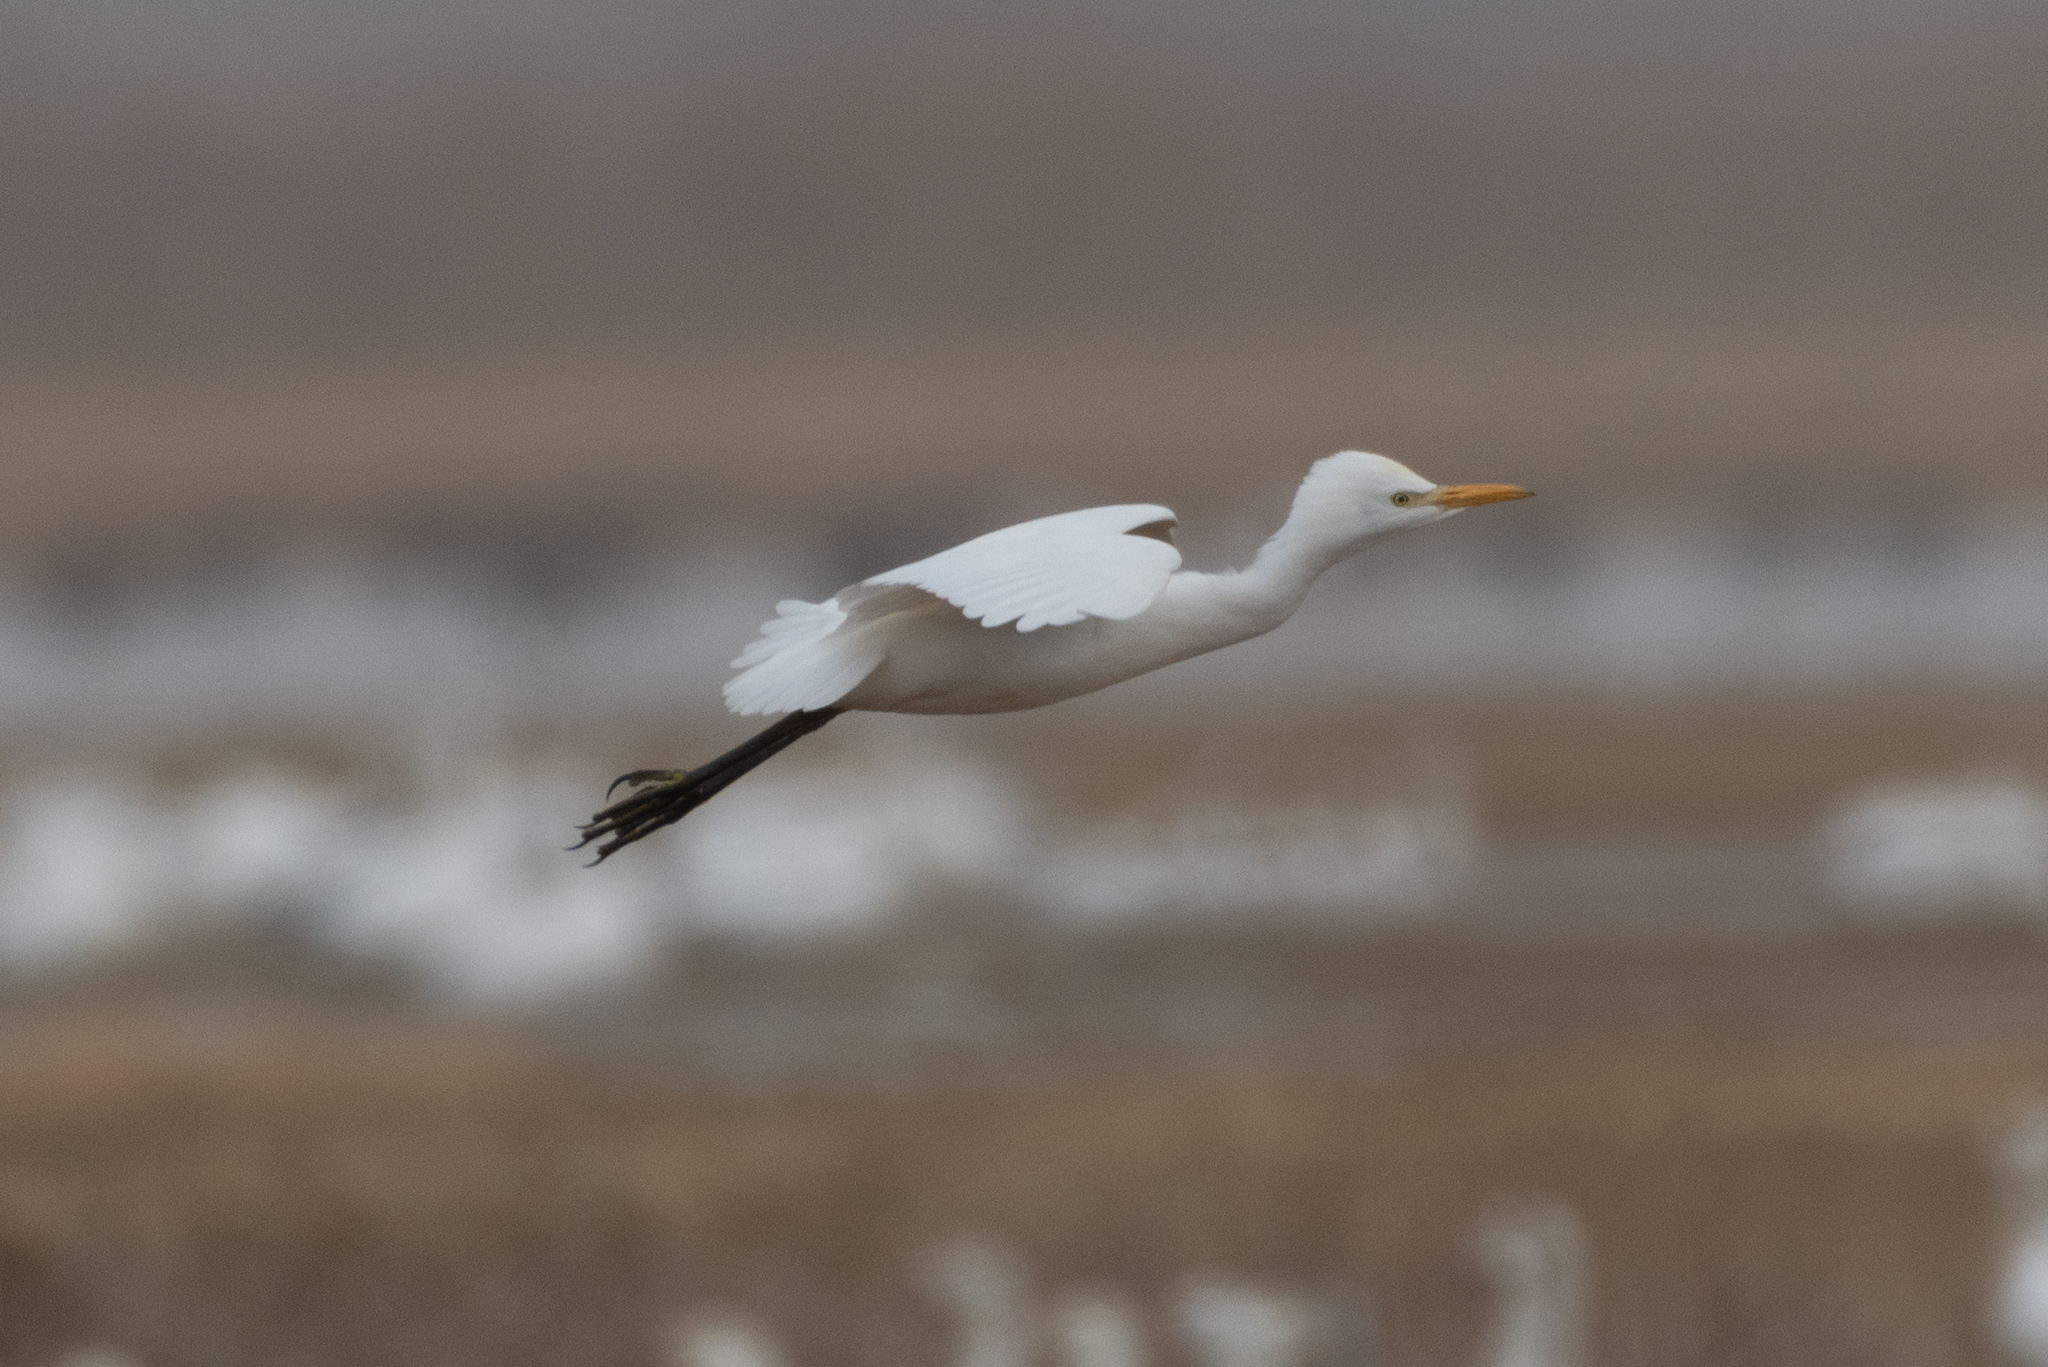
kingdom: Animalia
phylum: Chordata
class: Aves
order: Pelecaniformes
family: Ardeidae
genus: Bubulcus
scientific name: Bubulcus ibis
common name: Cattle egret
